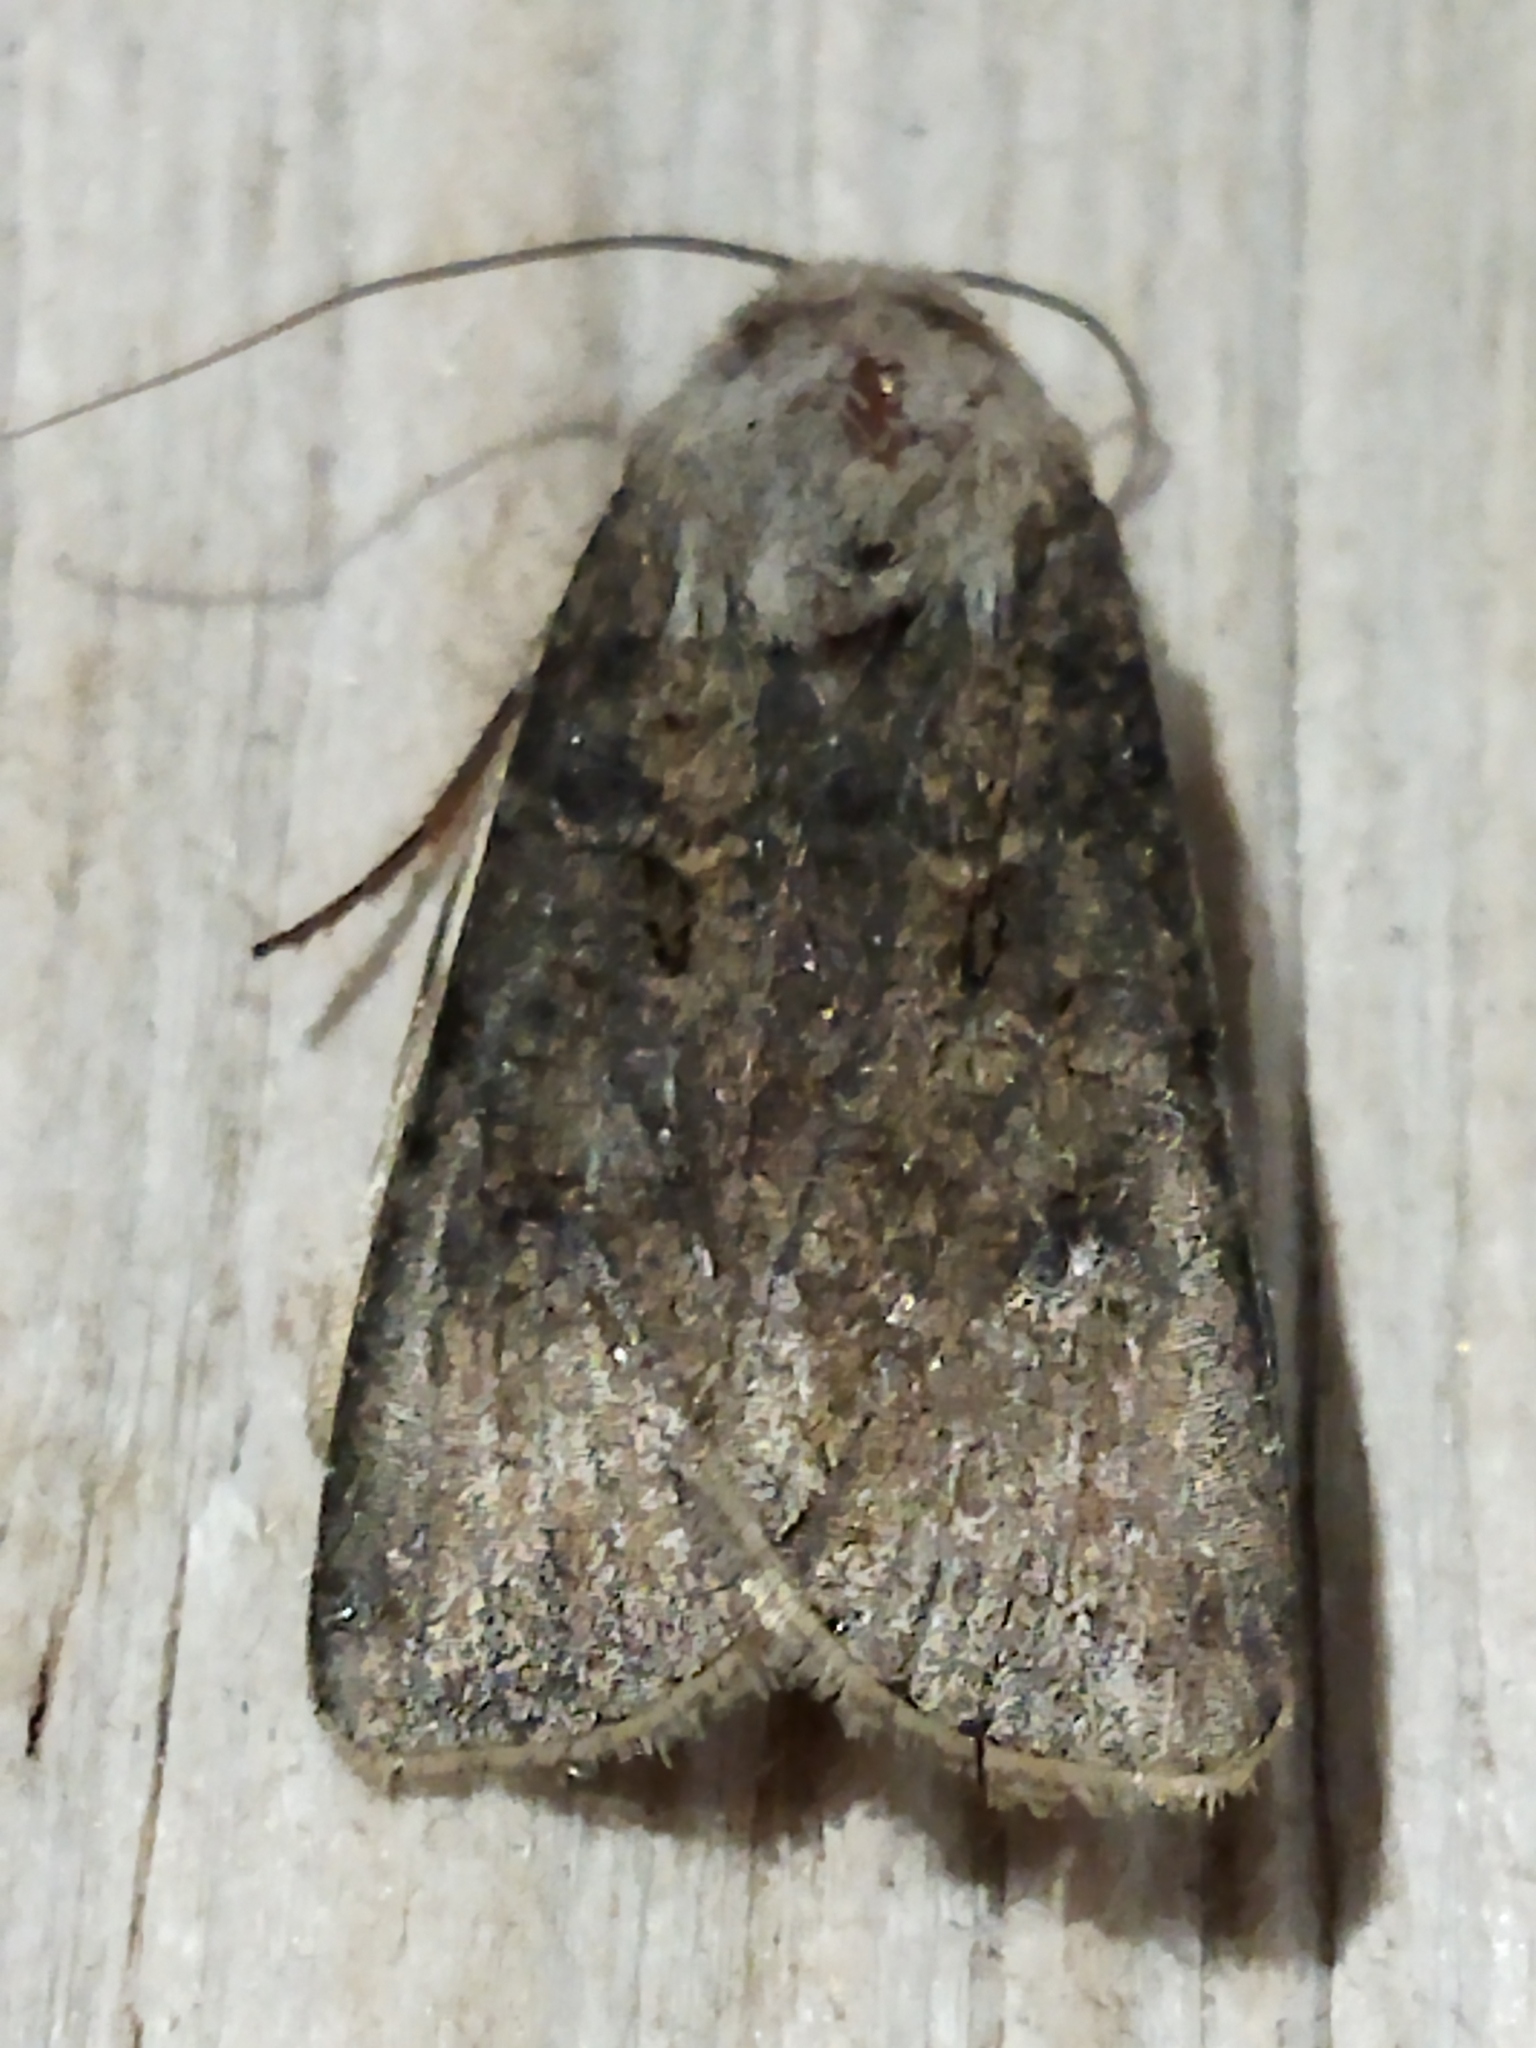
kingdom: Animalia
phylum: Arthropoda
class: Insecta
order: Lepidoptera
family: Noctuidae
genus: Agrotis
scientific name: Agrotis segetum
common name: Turnip moth
